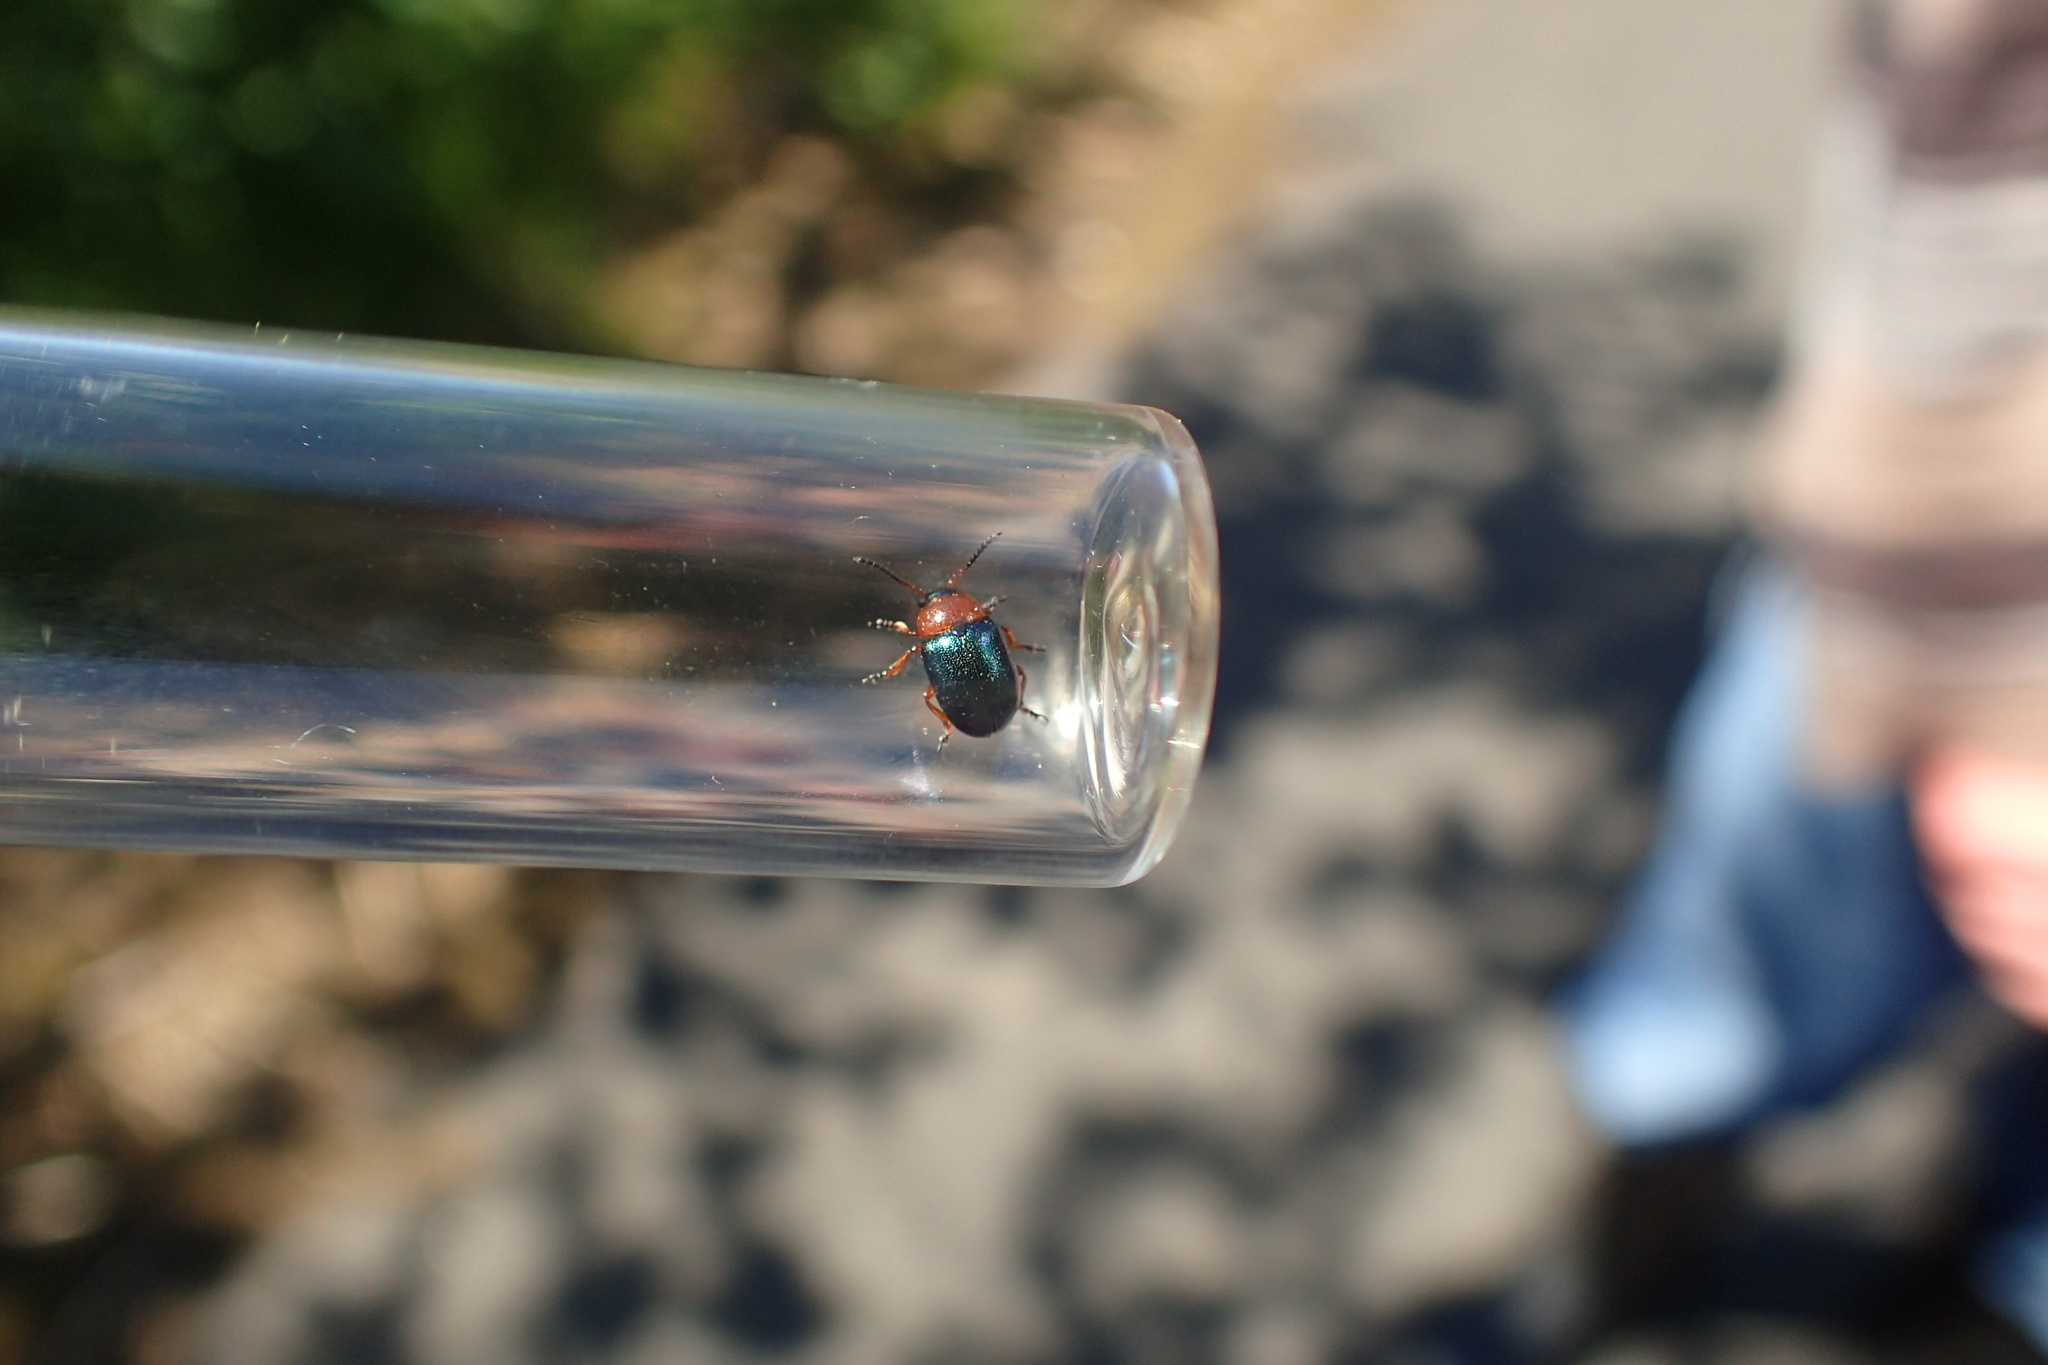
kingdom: Animalia
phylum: Arthropoda
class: Insecta
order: Coleoptera
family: Chrysomelidae
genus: Gastrophysa
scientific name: Gastrophysa polygoni
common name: Knotweed leaf beetle
